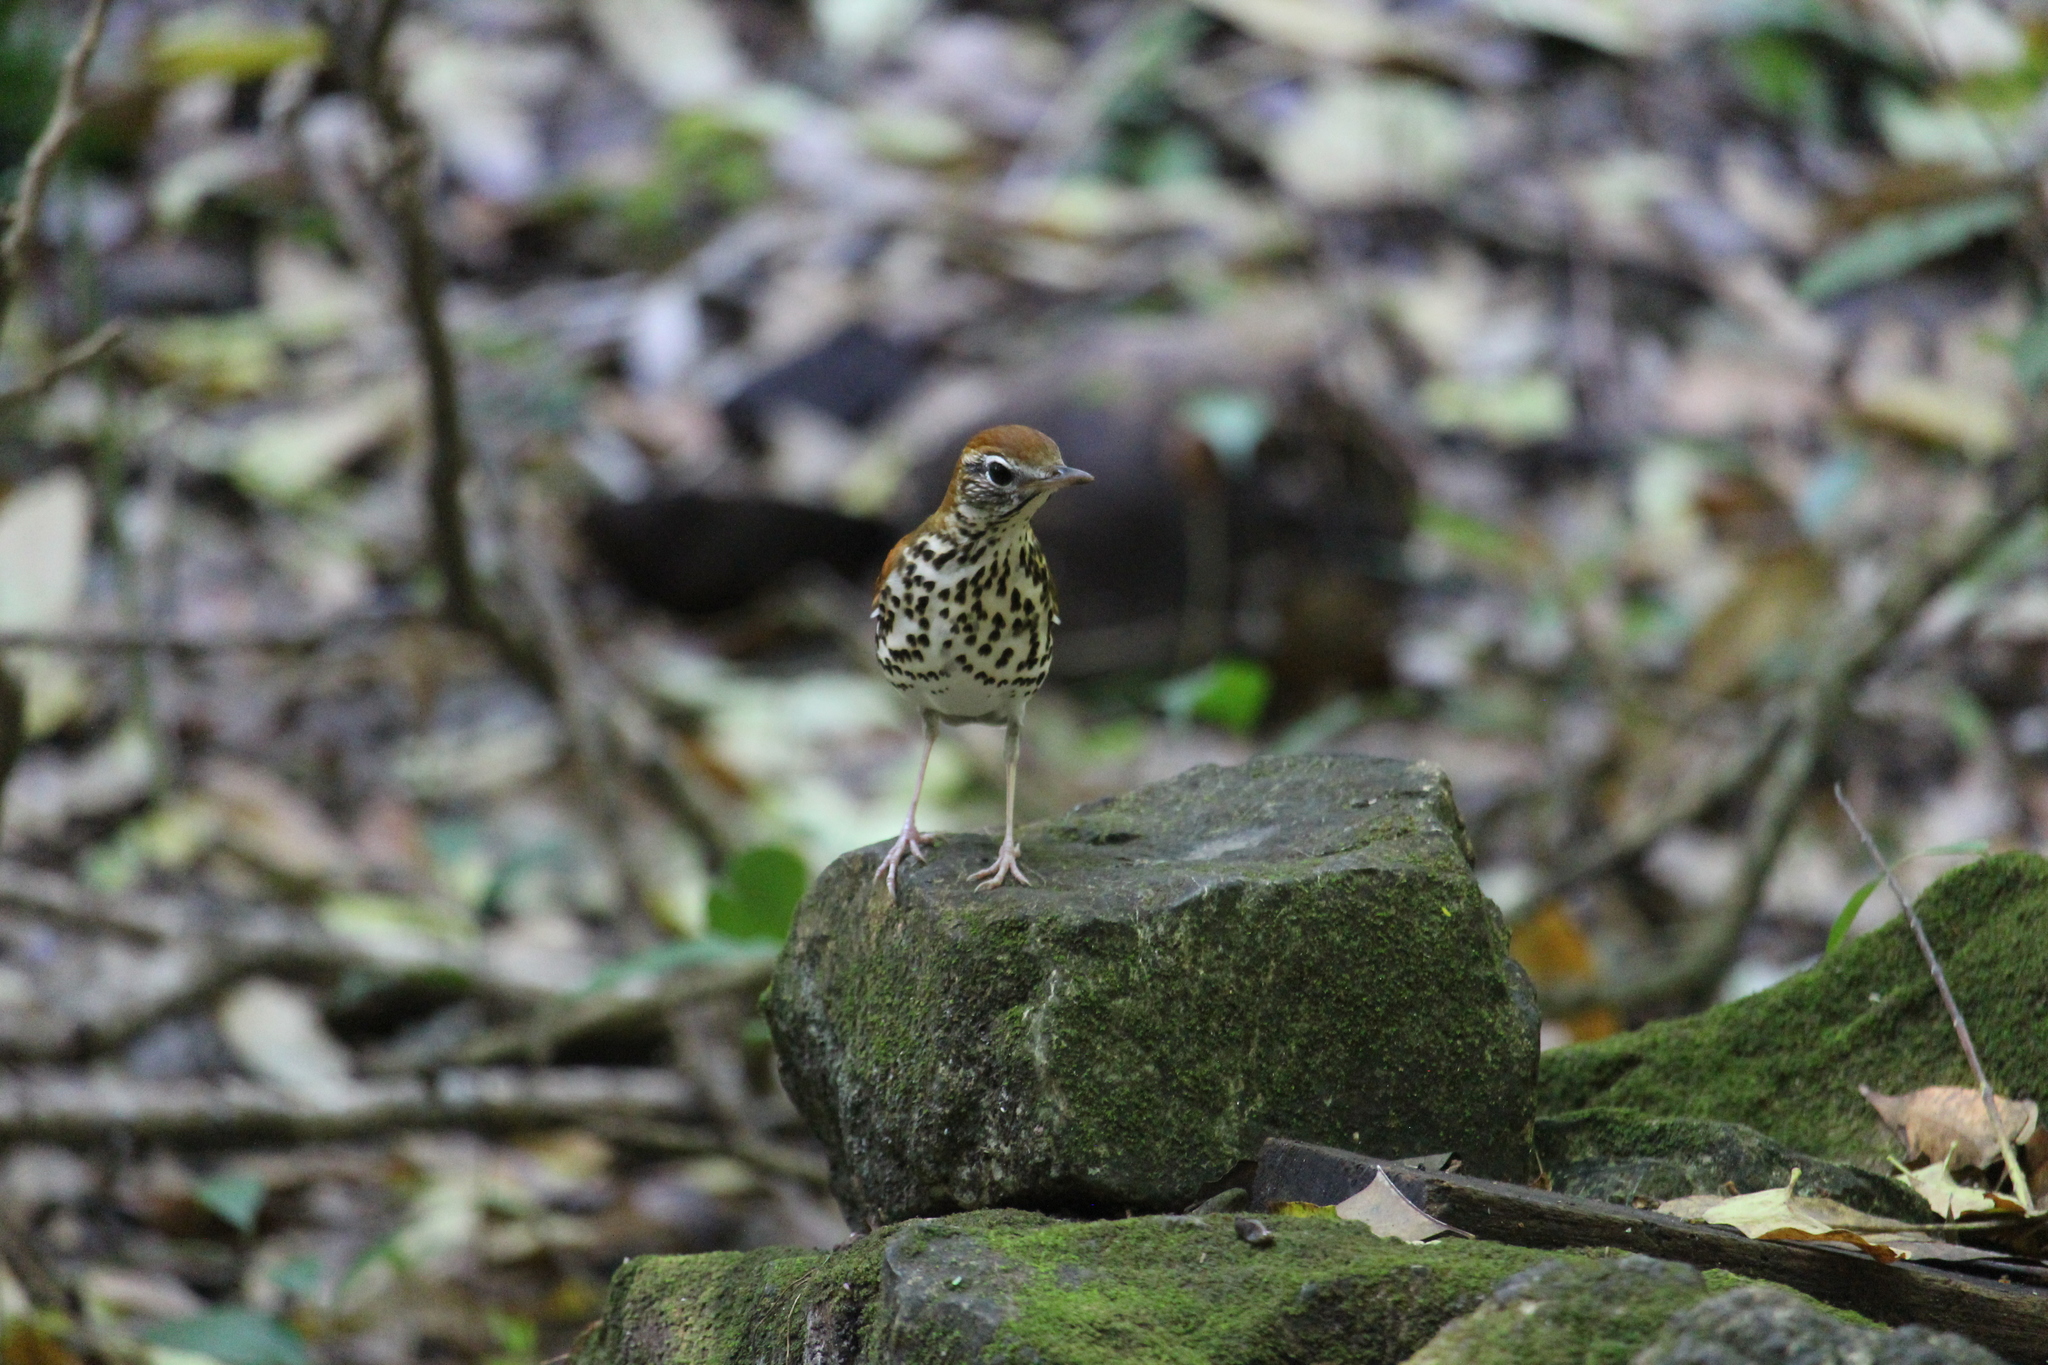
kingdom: Animalia
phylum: Chordata
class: Aves
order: Passeriformes
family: Turdidae
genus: Hylocichla
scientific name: Hylocichla mustelina
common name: Wood thrush
